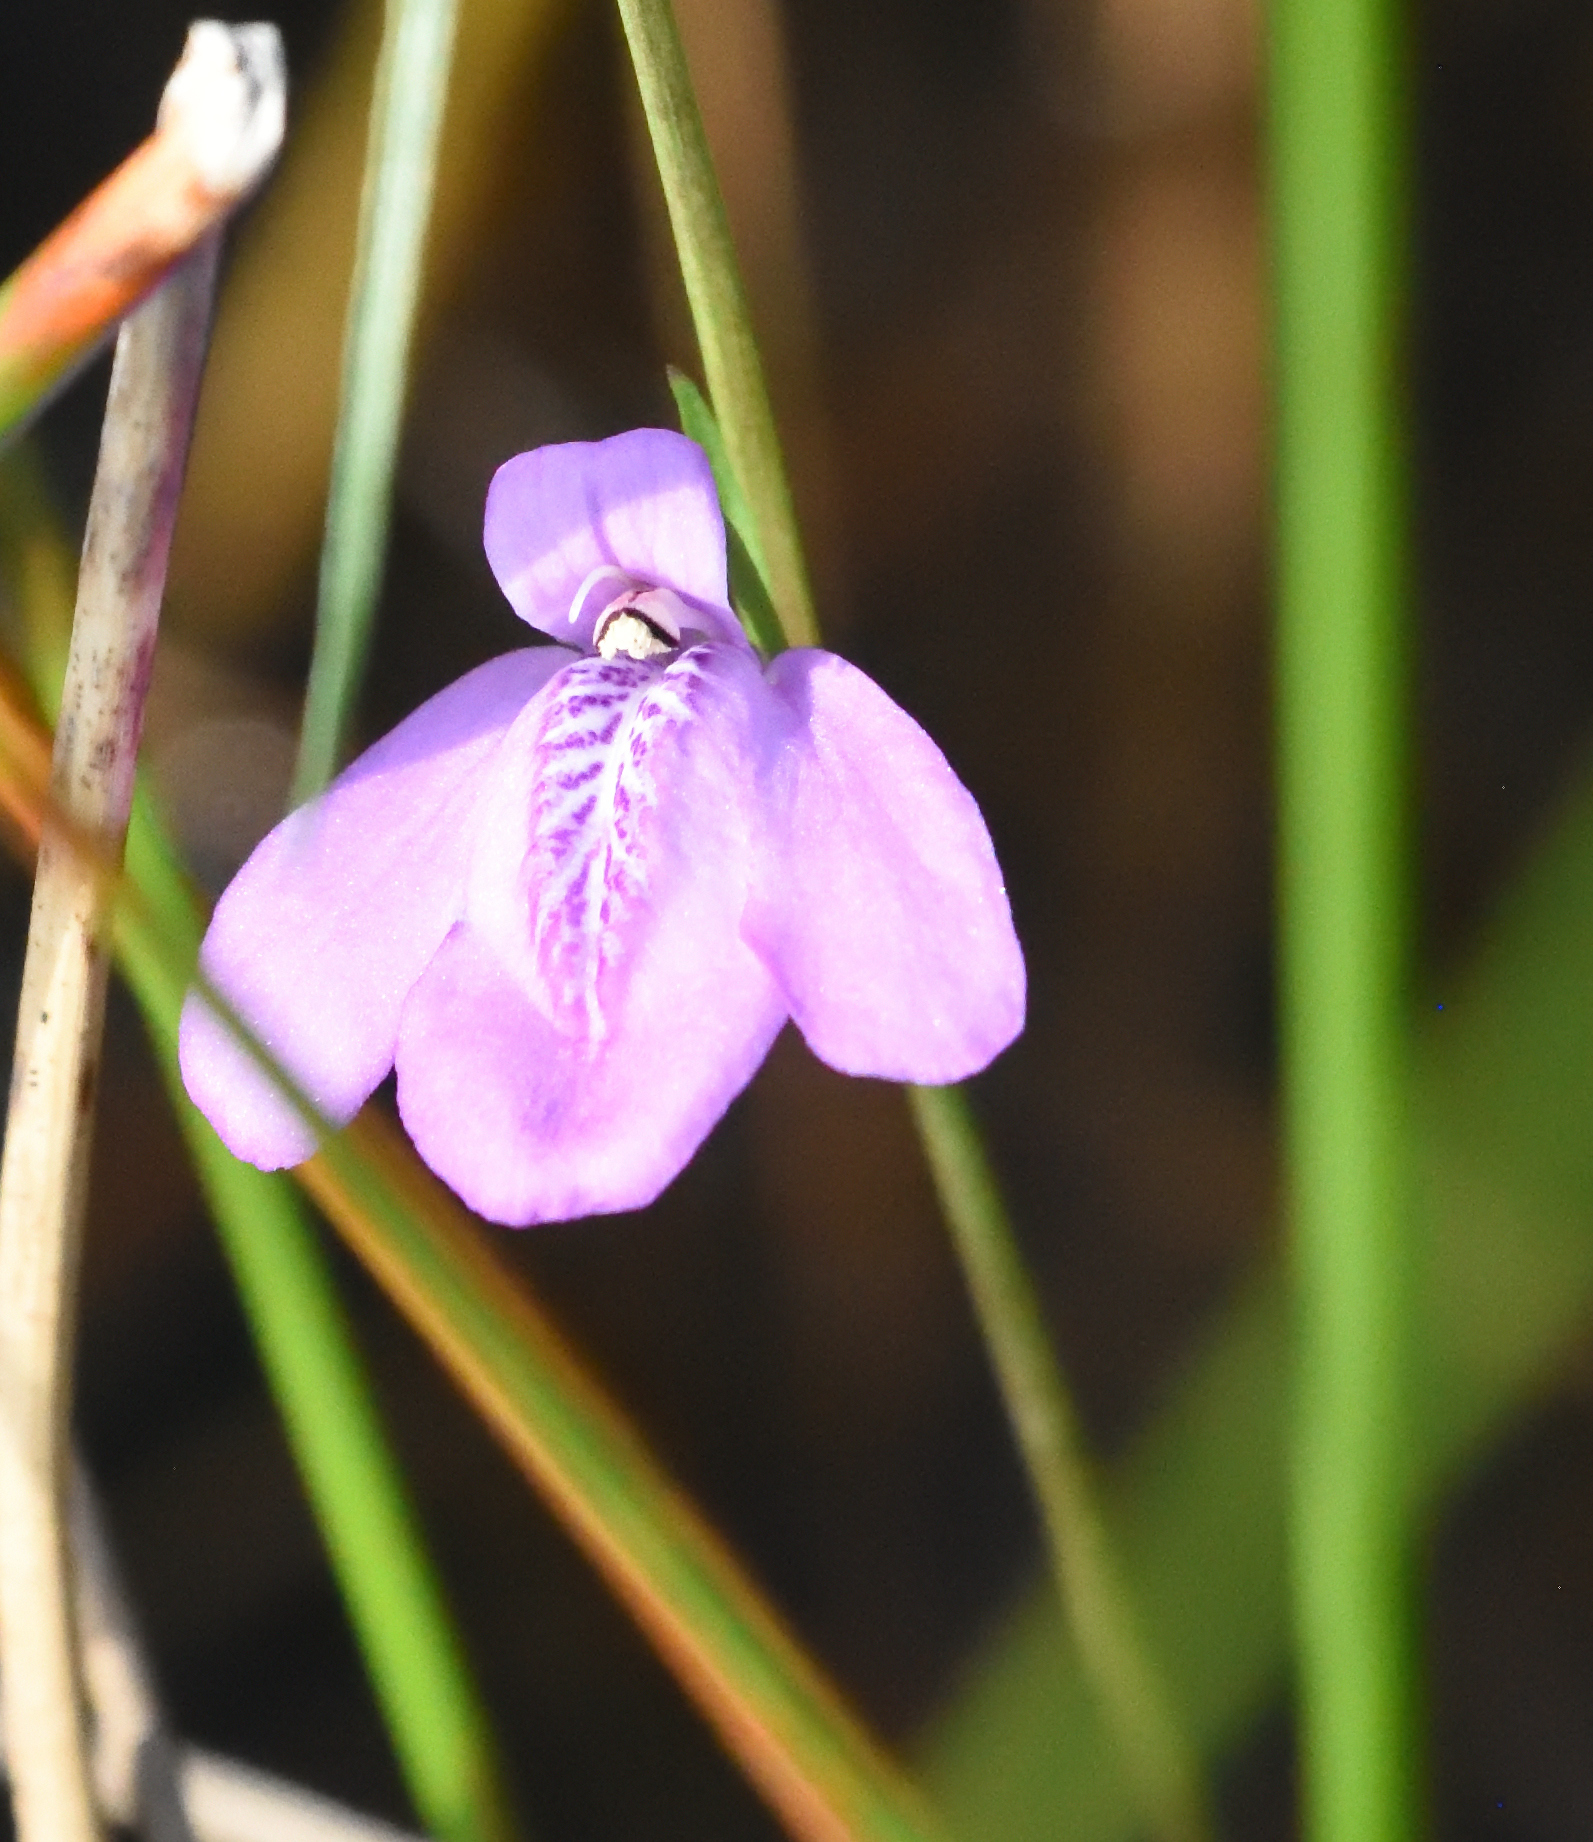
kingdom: Plantae
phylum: Tracheophyta
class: Magnoliopsida
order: Lamiales
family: Acanthaceae
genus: Dianthera
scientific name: Dianthera angusta
